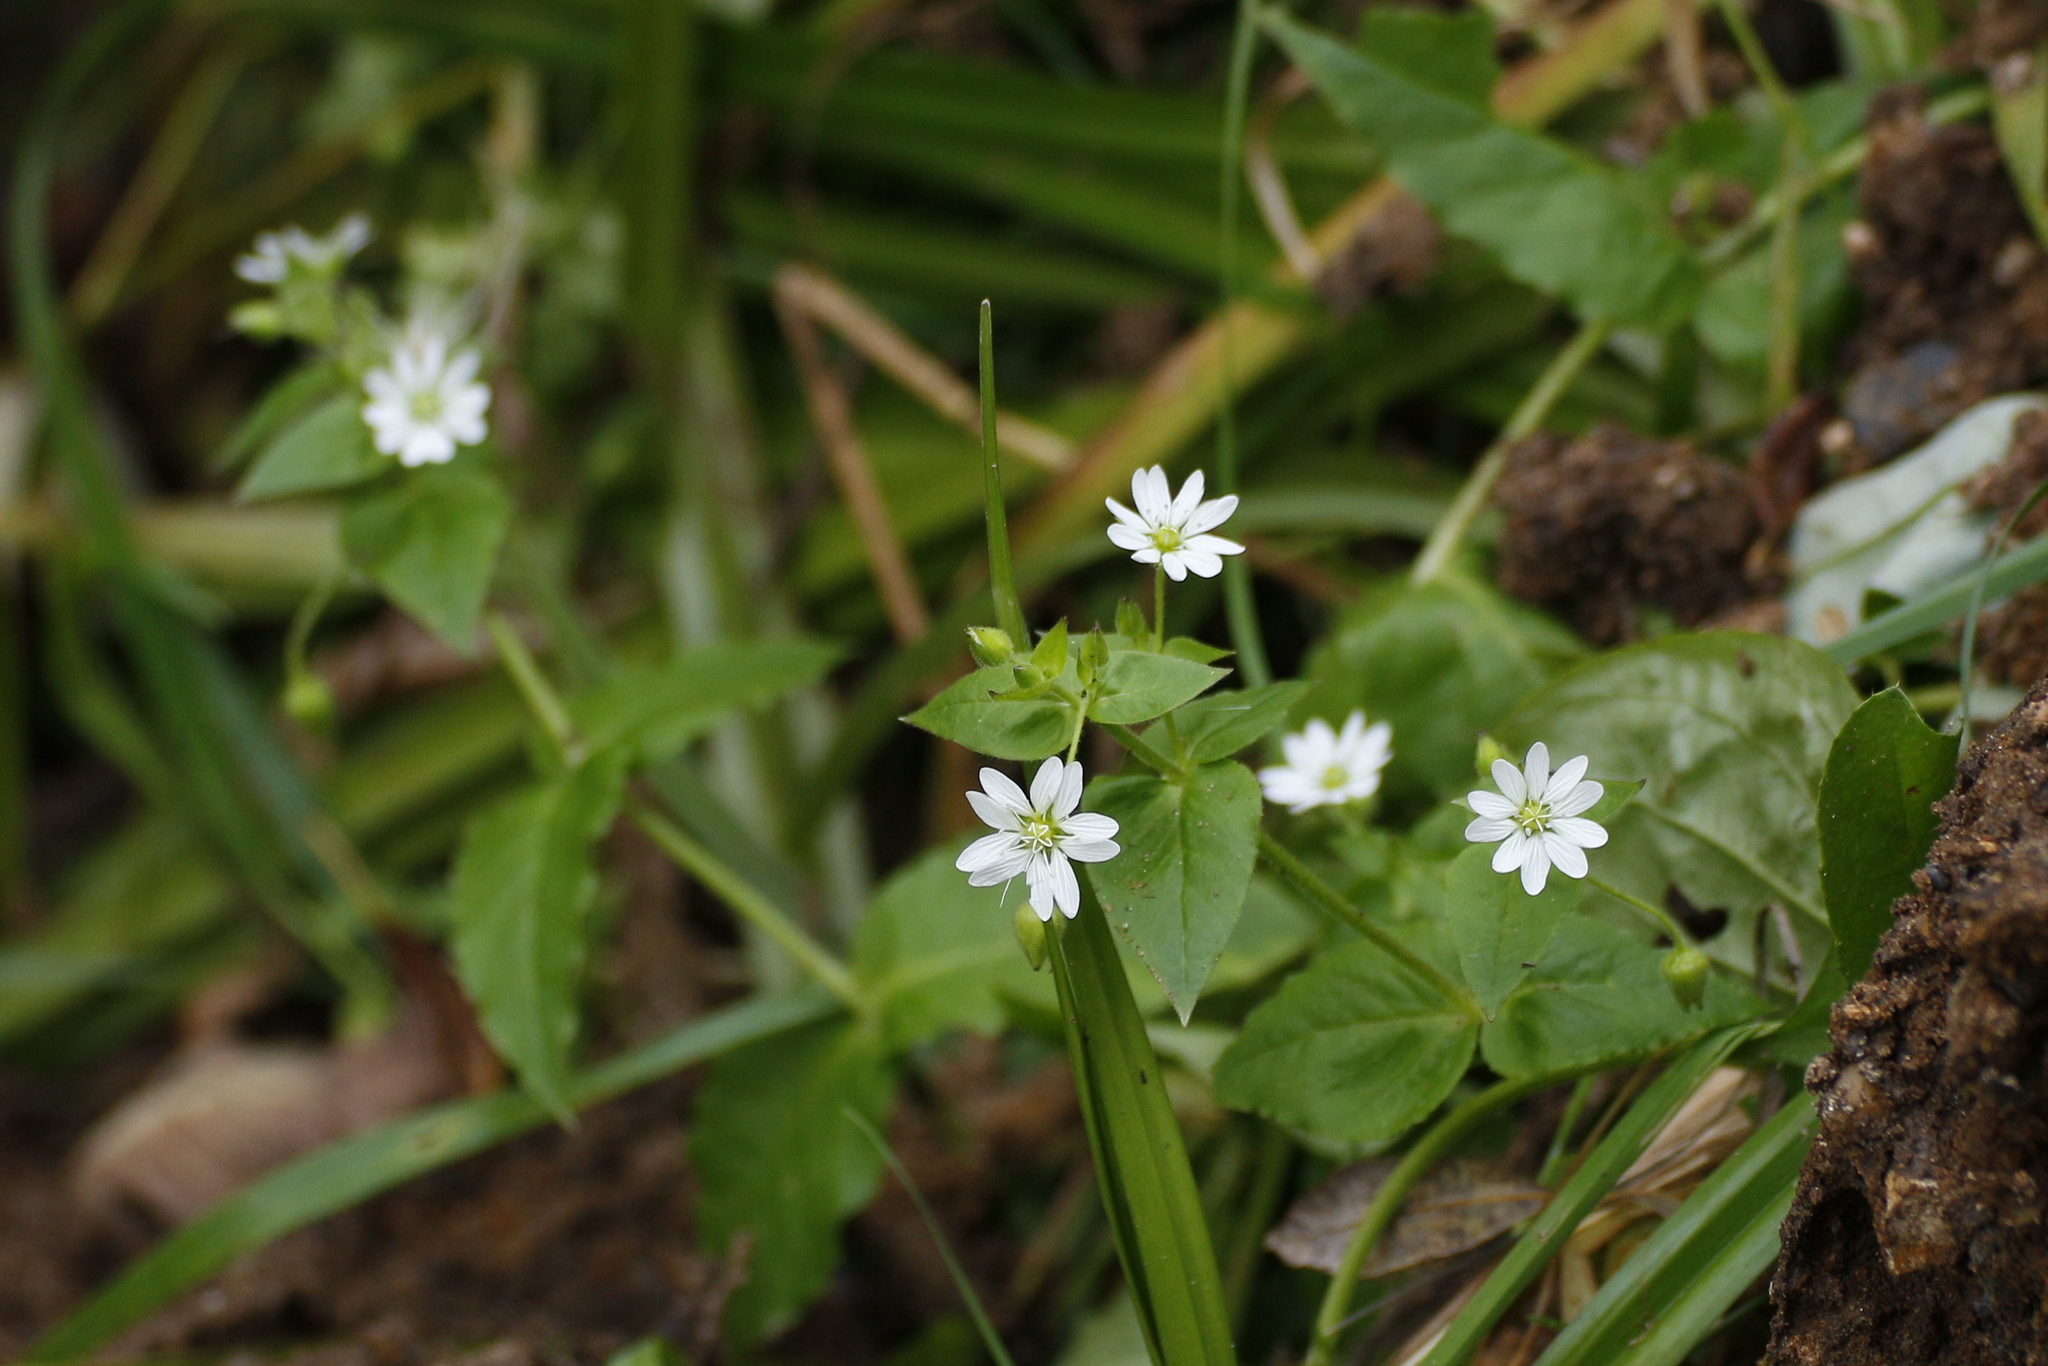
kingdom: Plantae
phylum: Tracheophyta
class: Magnoliopsida
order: Caryophyllales
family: Caryophyllaceae
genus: Stellaria
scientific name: Stellaria aquatica
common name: Water chickweed
